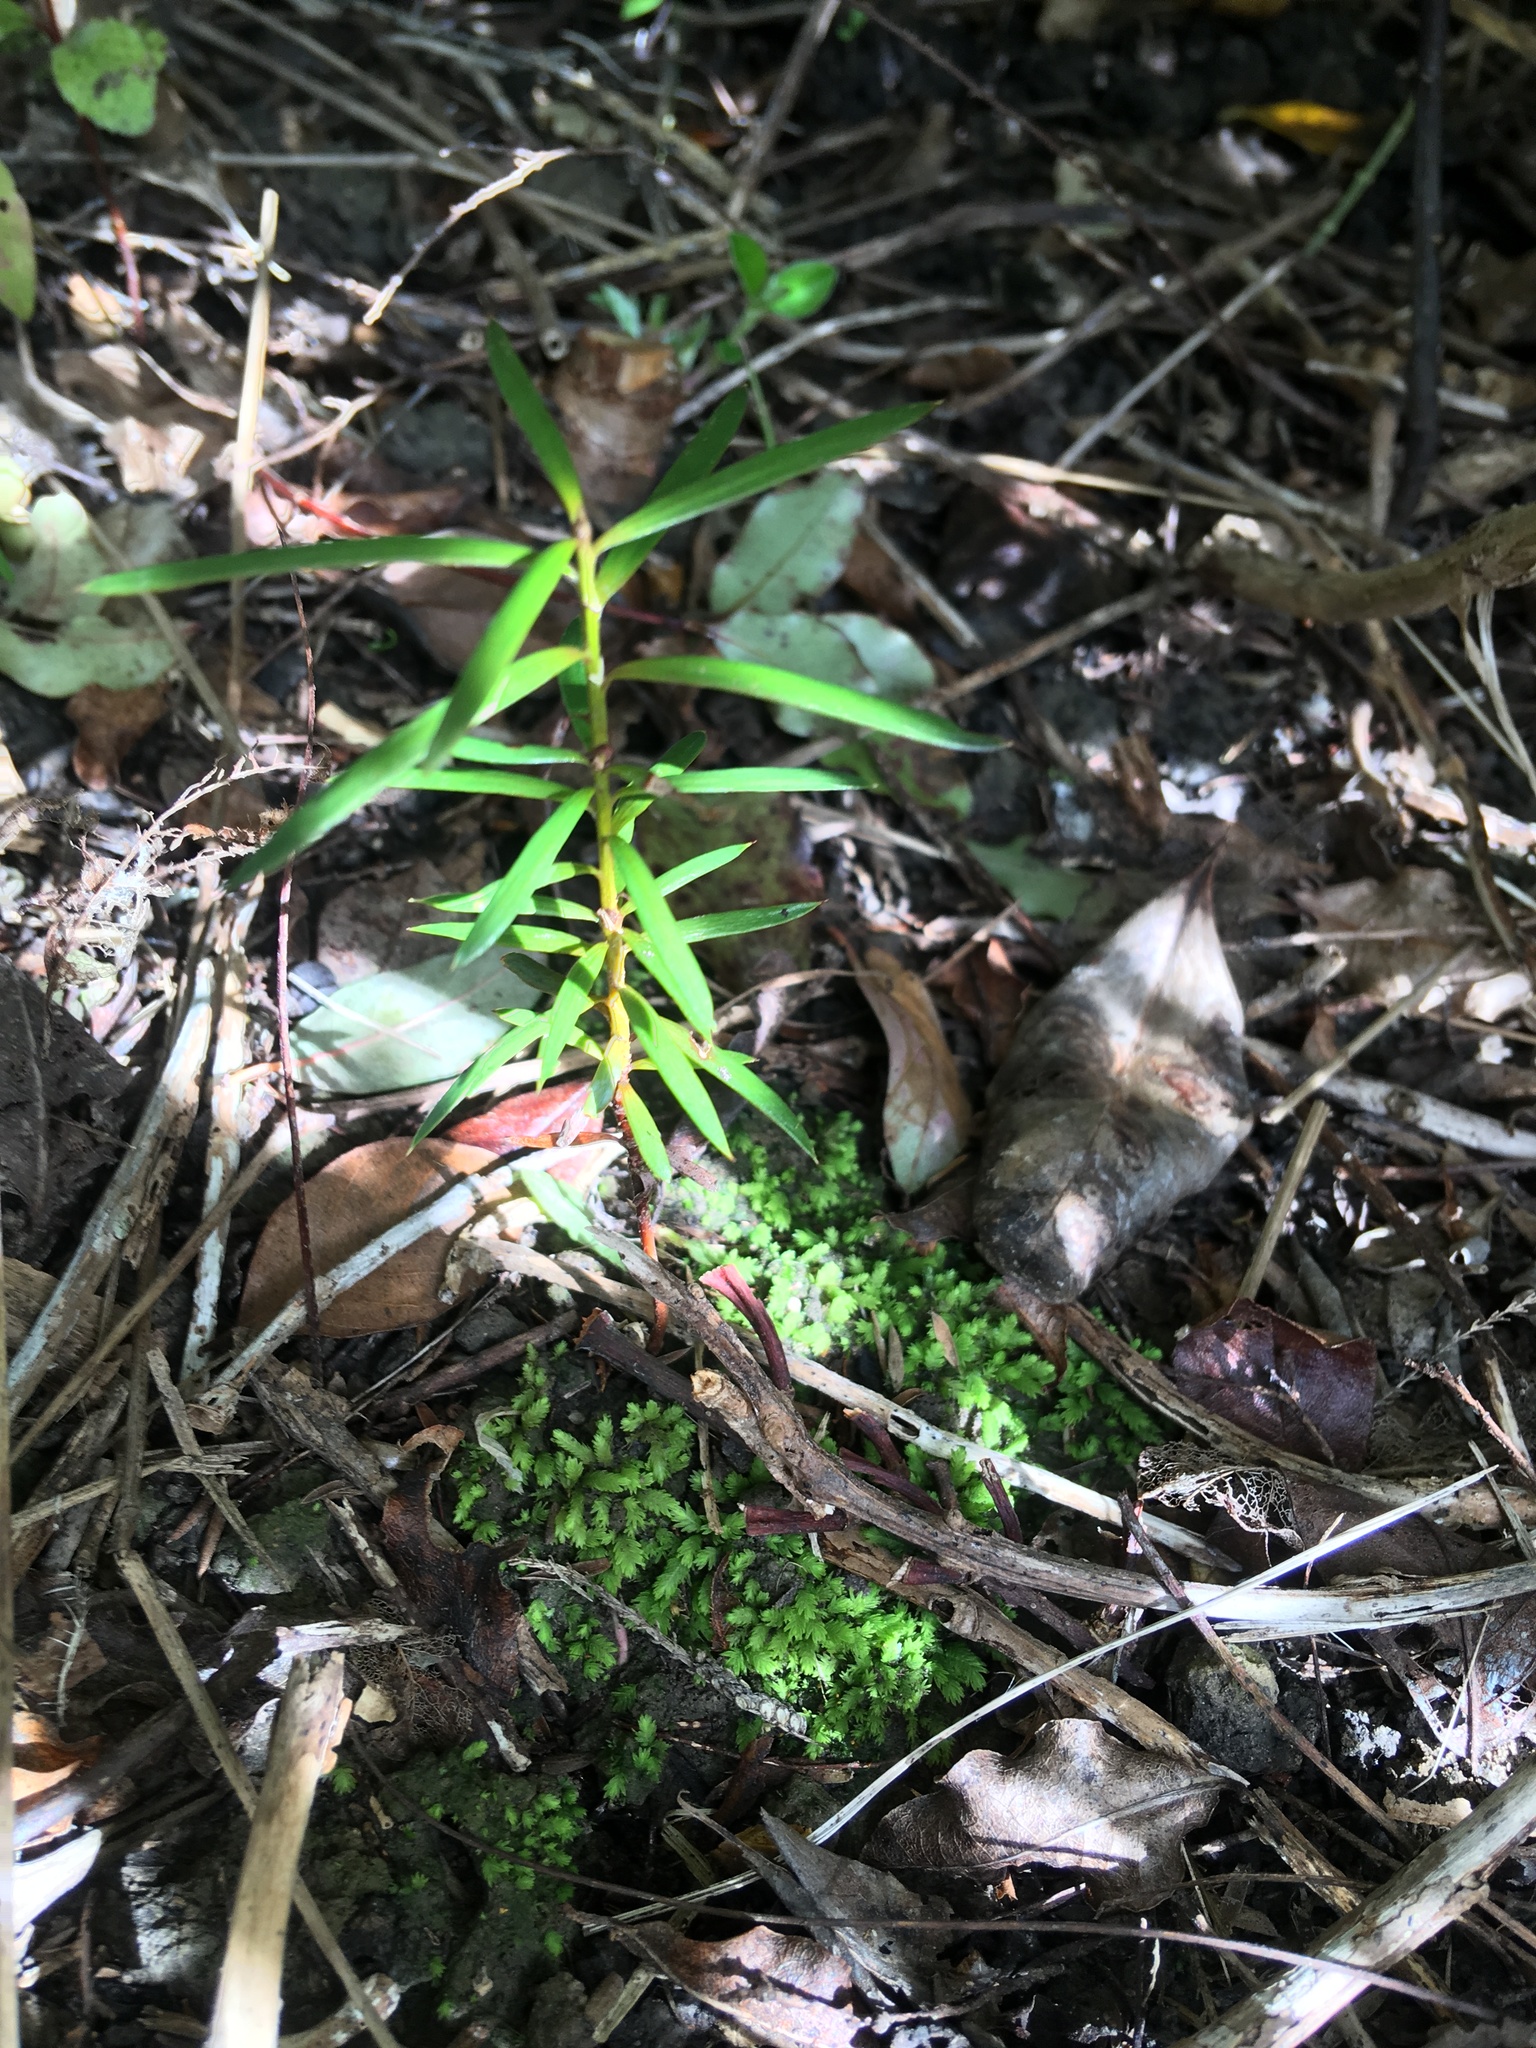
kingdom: Plantae
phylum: Tracheophyta
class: Pinopsida
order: Pinales
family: Podocarpaceae
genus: Podocarpus
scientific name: Podocarpus totara
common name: Totara
